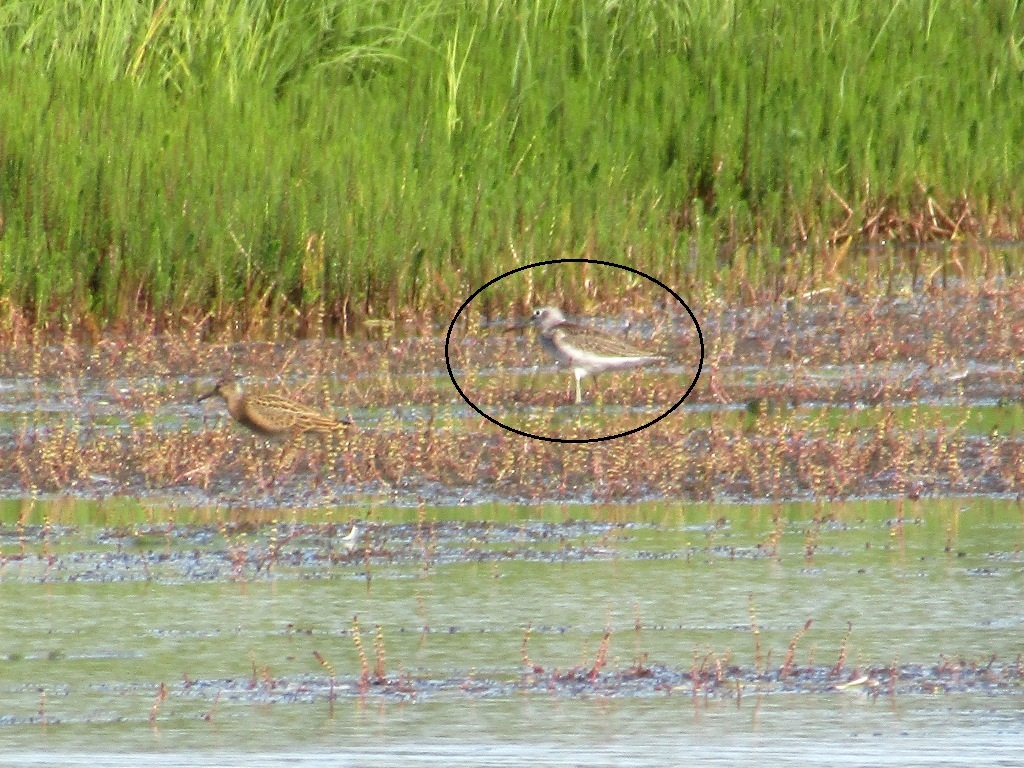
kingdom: Animalia
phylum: Chordata
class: Aves
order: Charadriiformes
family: Scolopacidae
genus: Tringa
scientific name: Tringa nebularia
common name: Common greenshank
